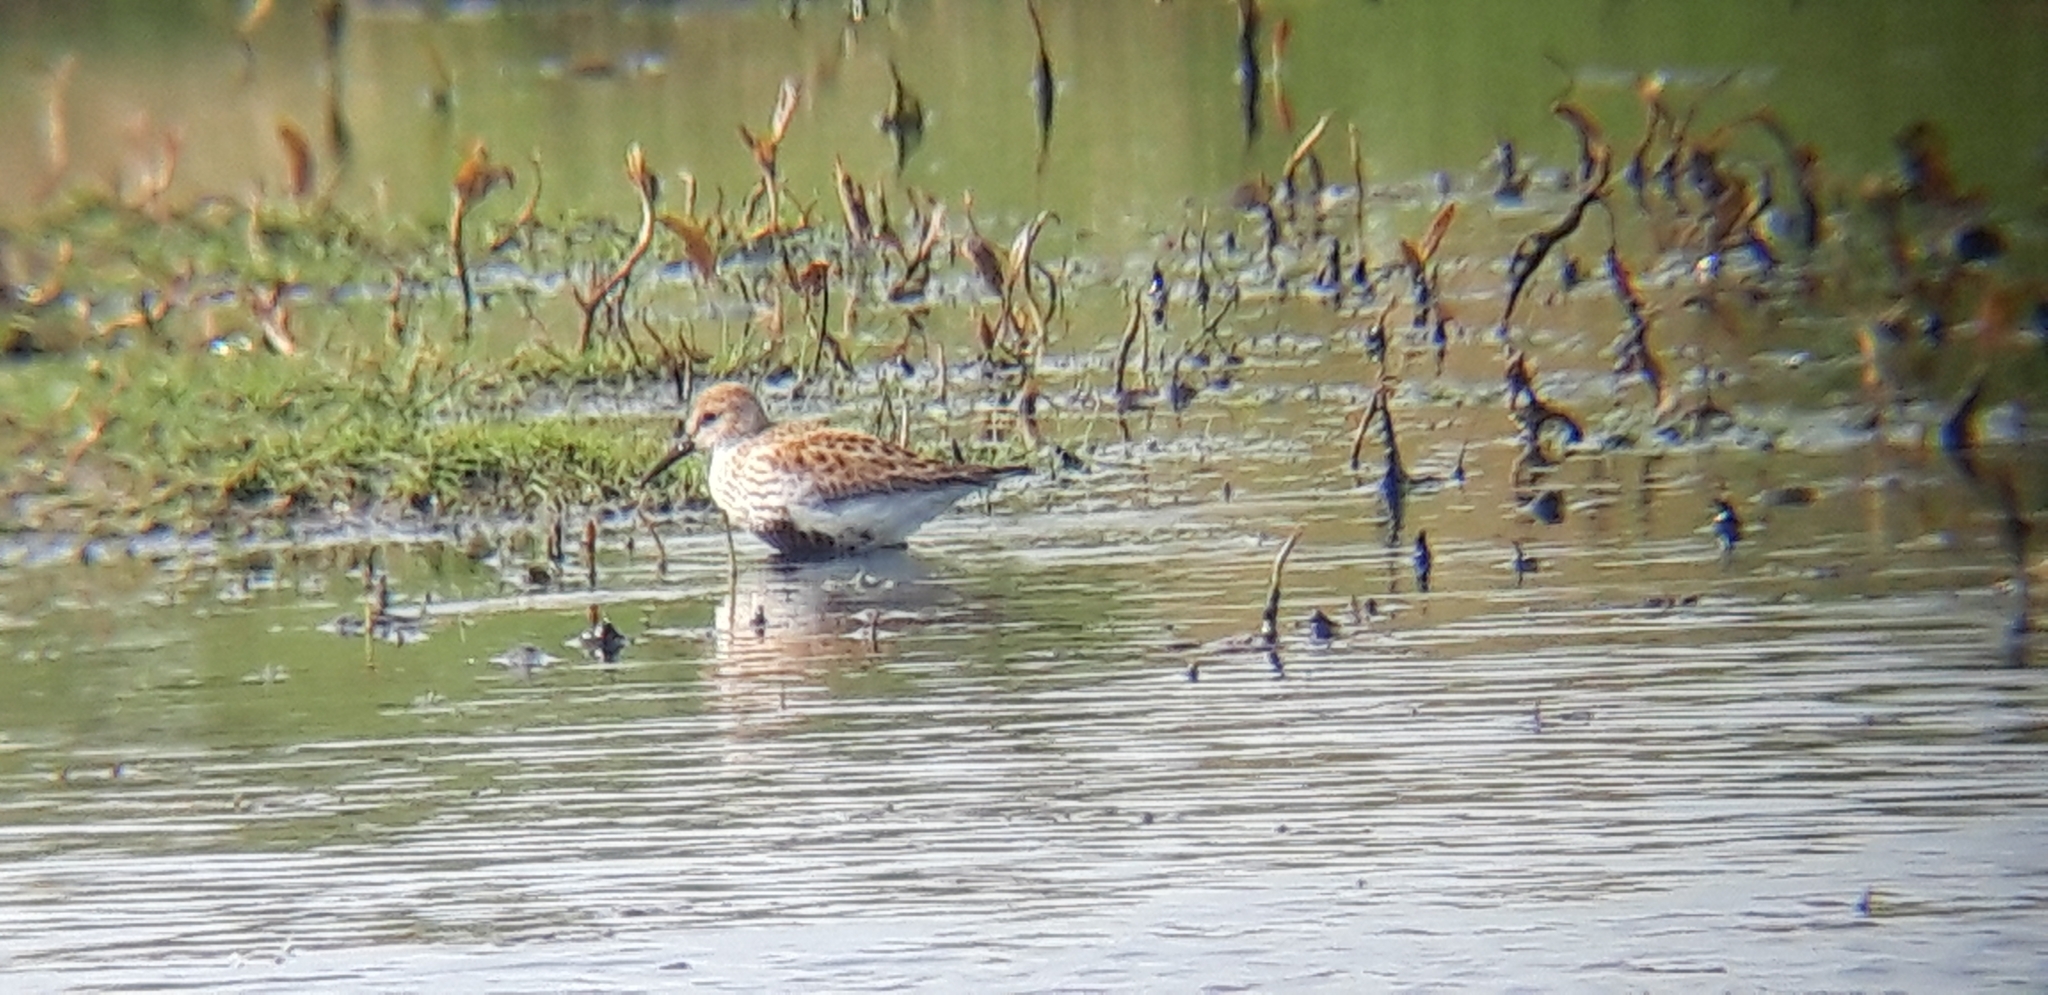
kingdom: Animalia
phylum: Chordata
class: Aves
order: Charadriiformes
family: Scolopacidae
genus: Calidris
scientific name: Calidris alpina
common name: Dunlin
